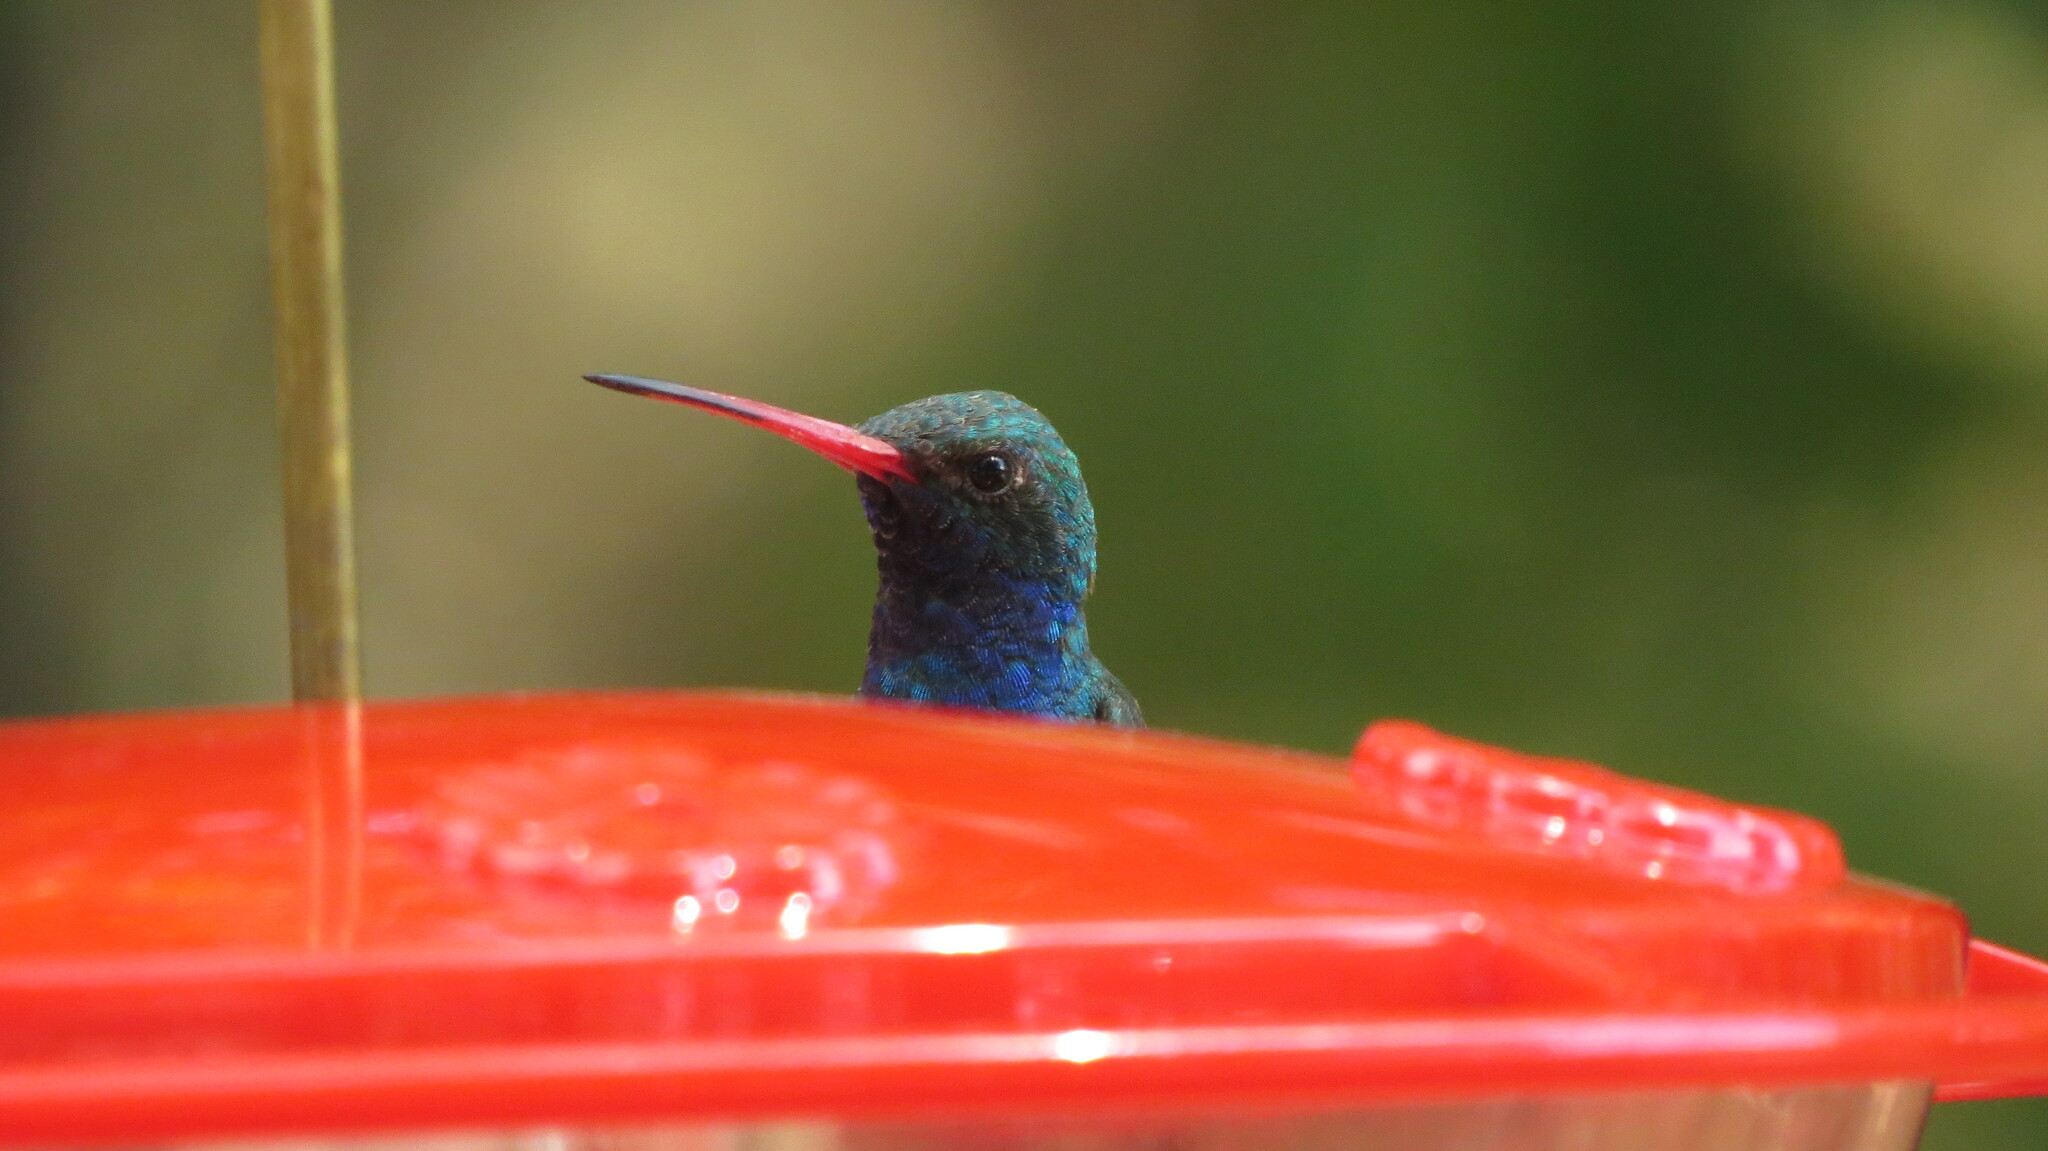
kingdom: Animalia
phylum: Chordata
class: Aves
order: Apodiformes
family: Trochilidae
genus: Cynanthus
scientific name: Cynanthus latirostris
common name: Broad-billed hummingbird
